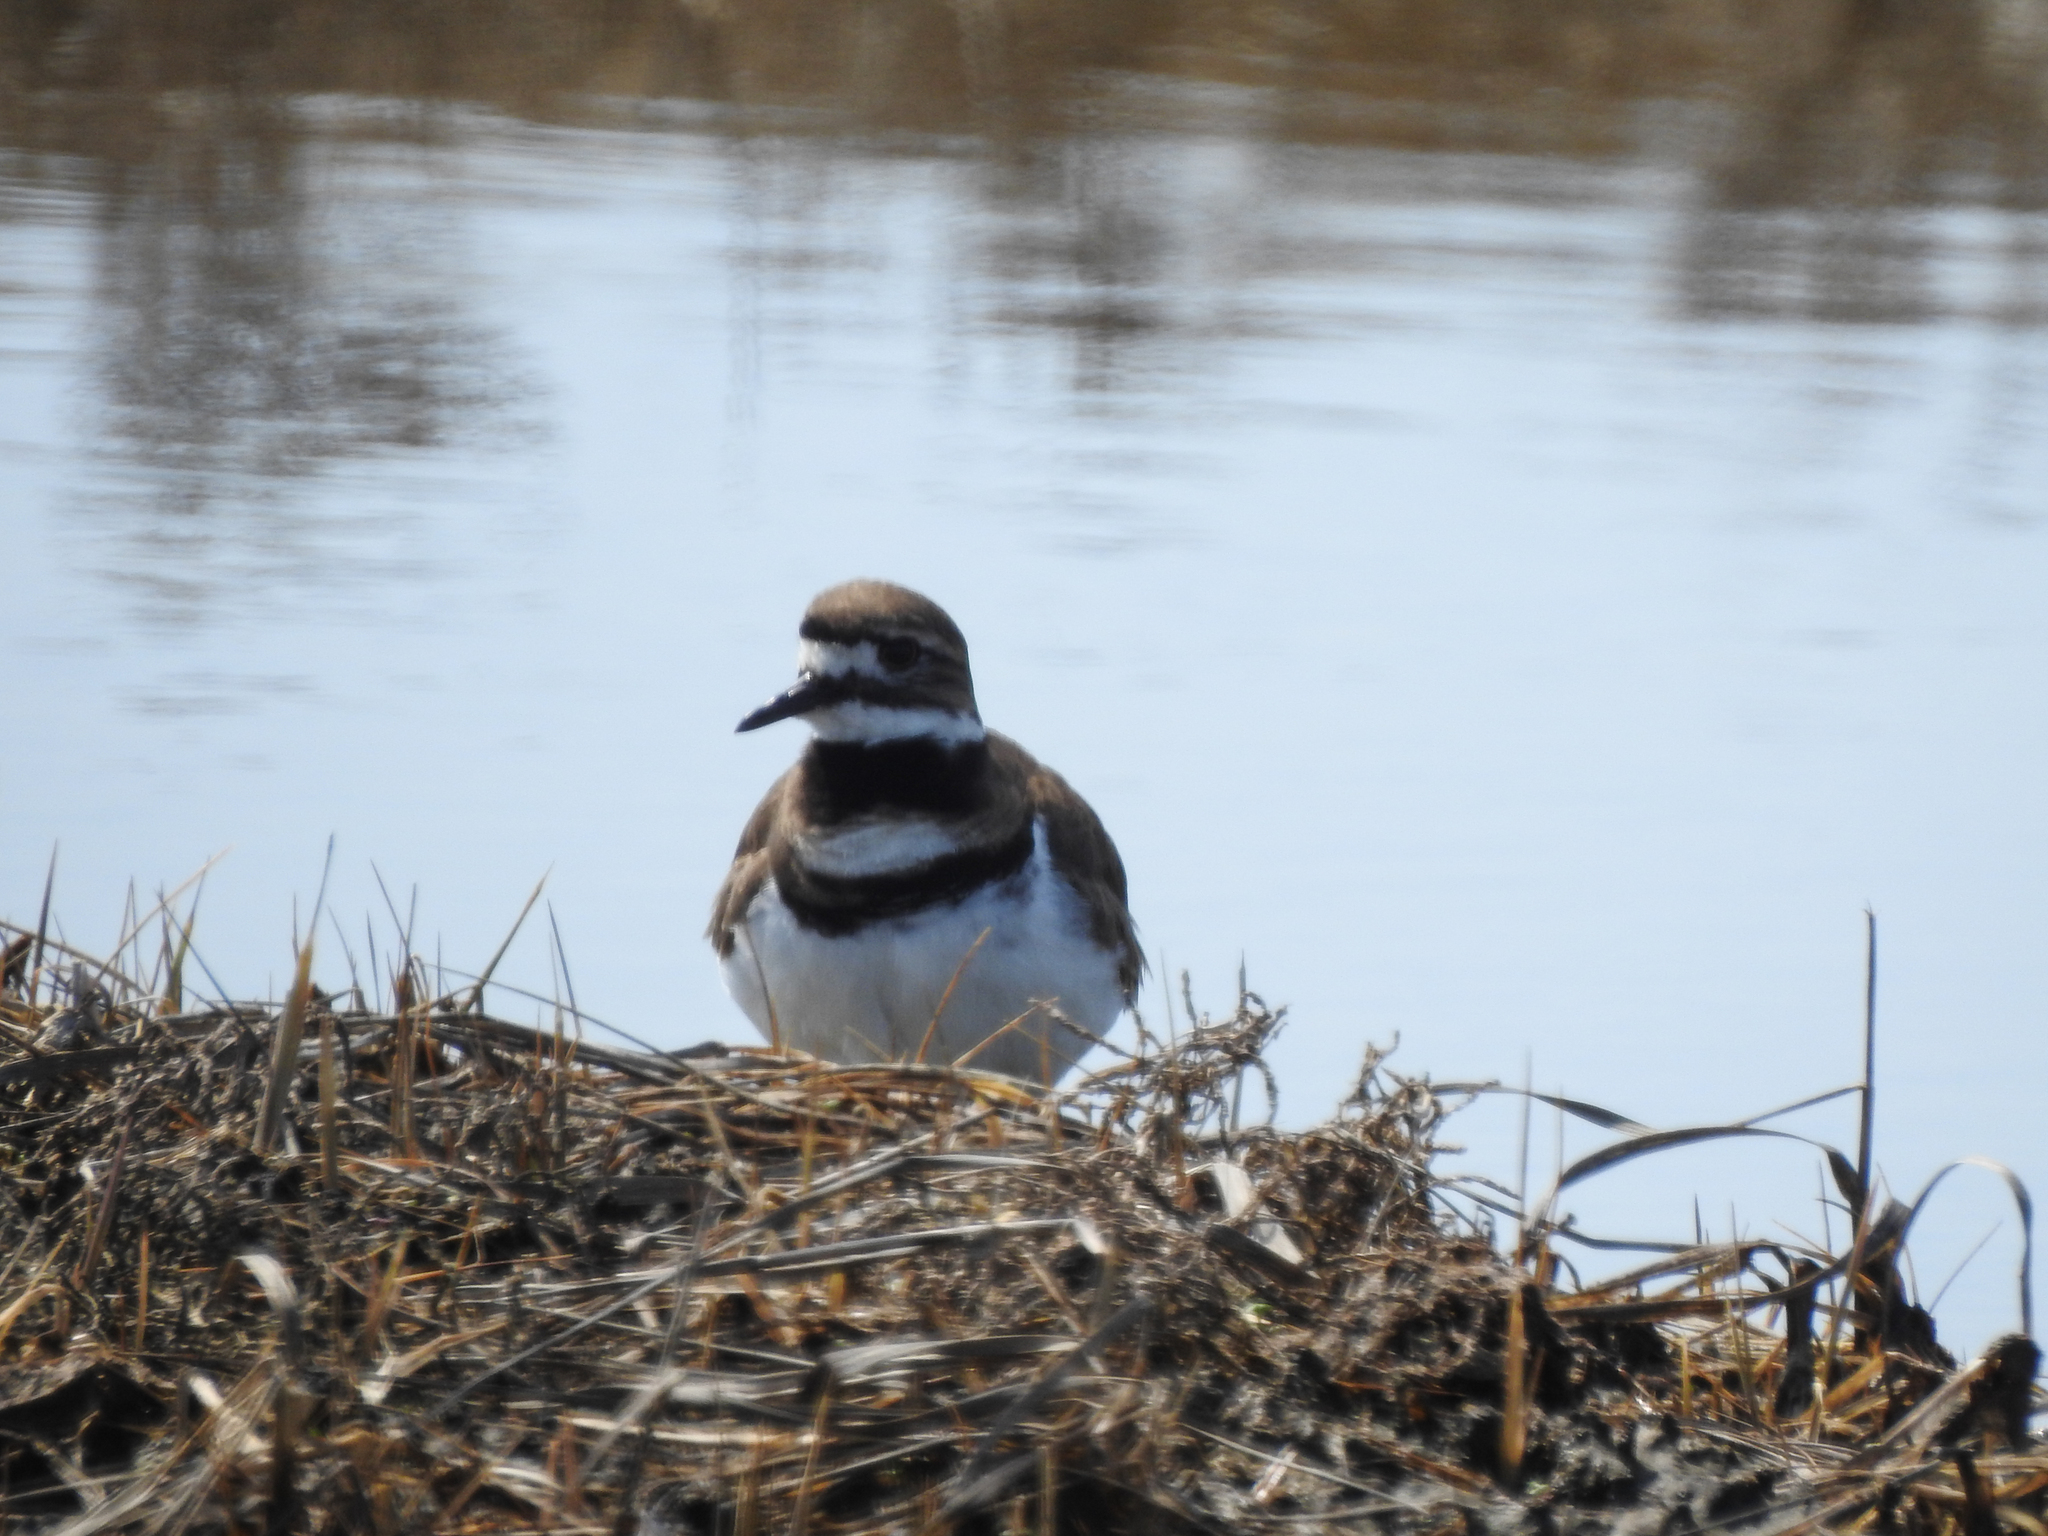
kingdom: Animalia
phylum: Chordata
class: Aves
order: Charadriiformes
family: Charadriidae
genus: Charadrius
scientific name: Charadrius vociferus
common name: Killdeer
